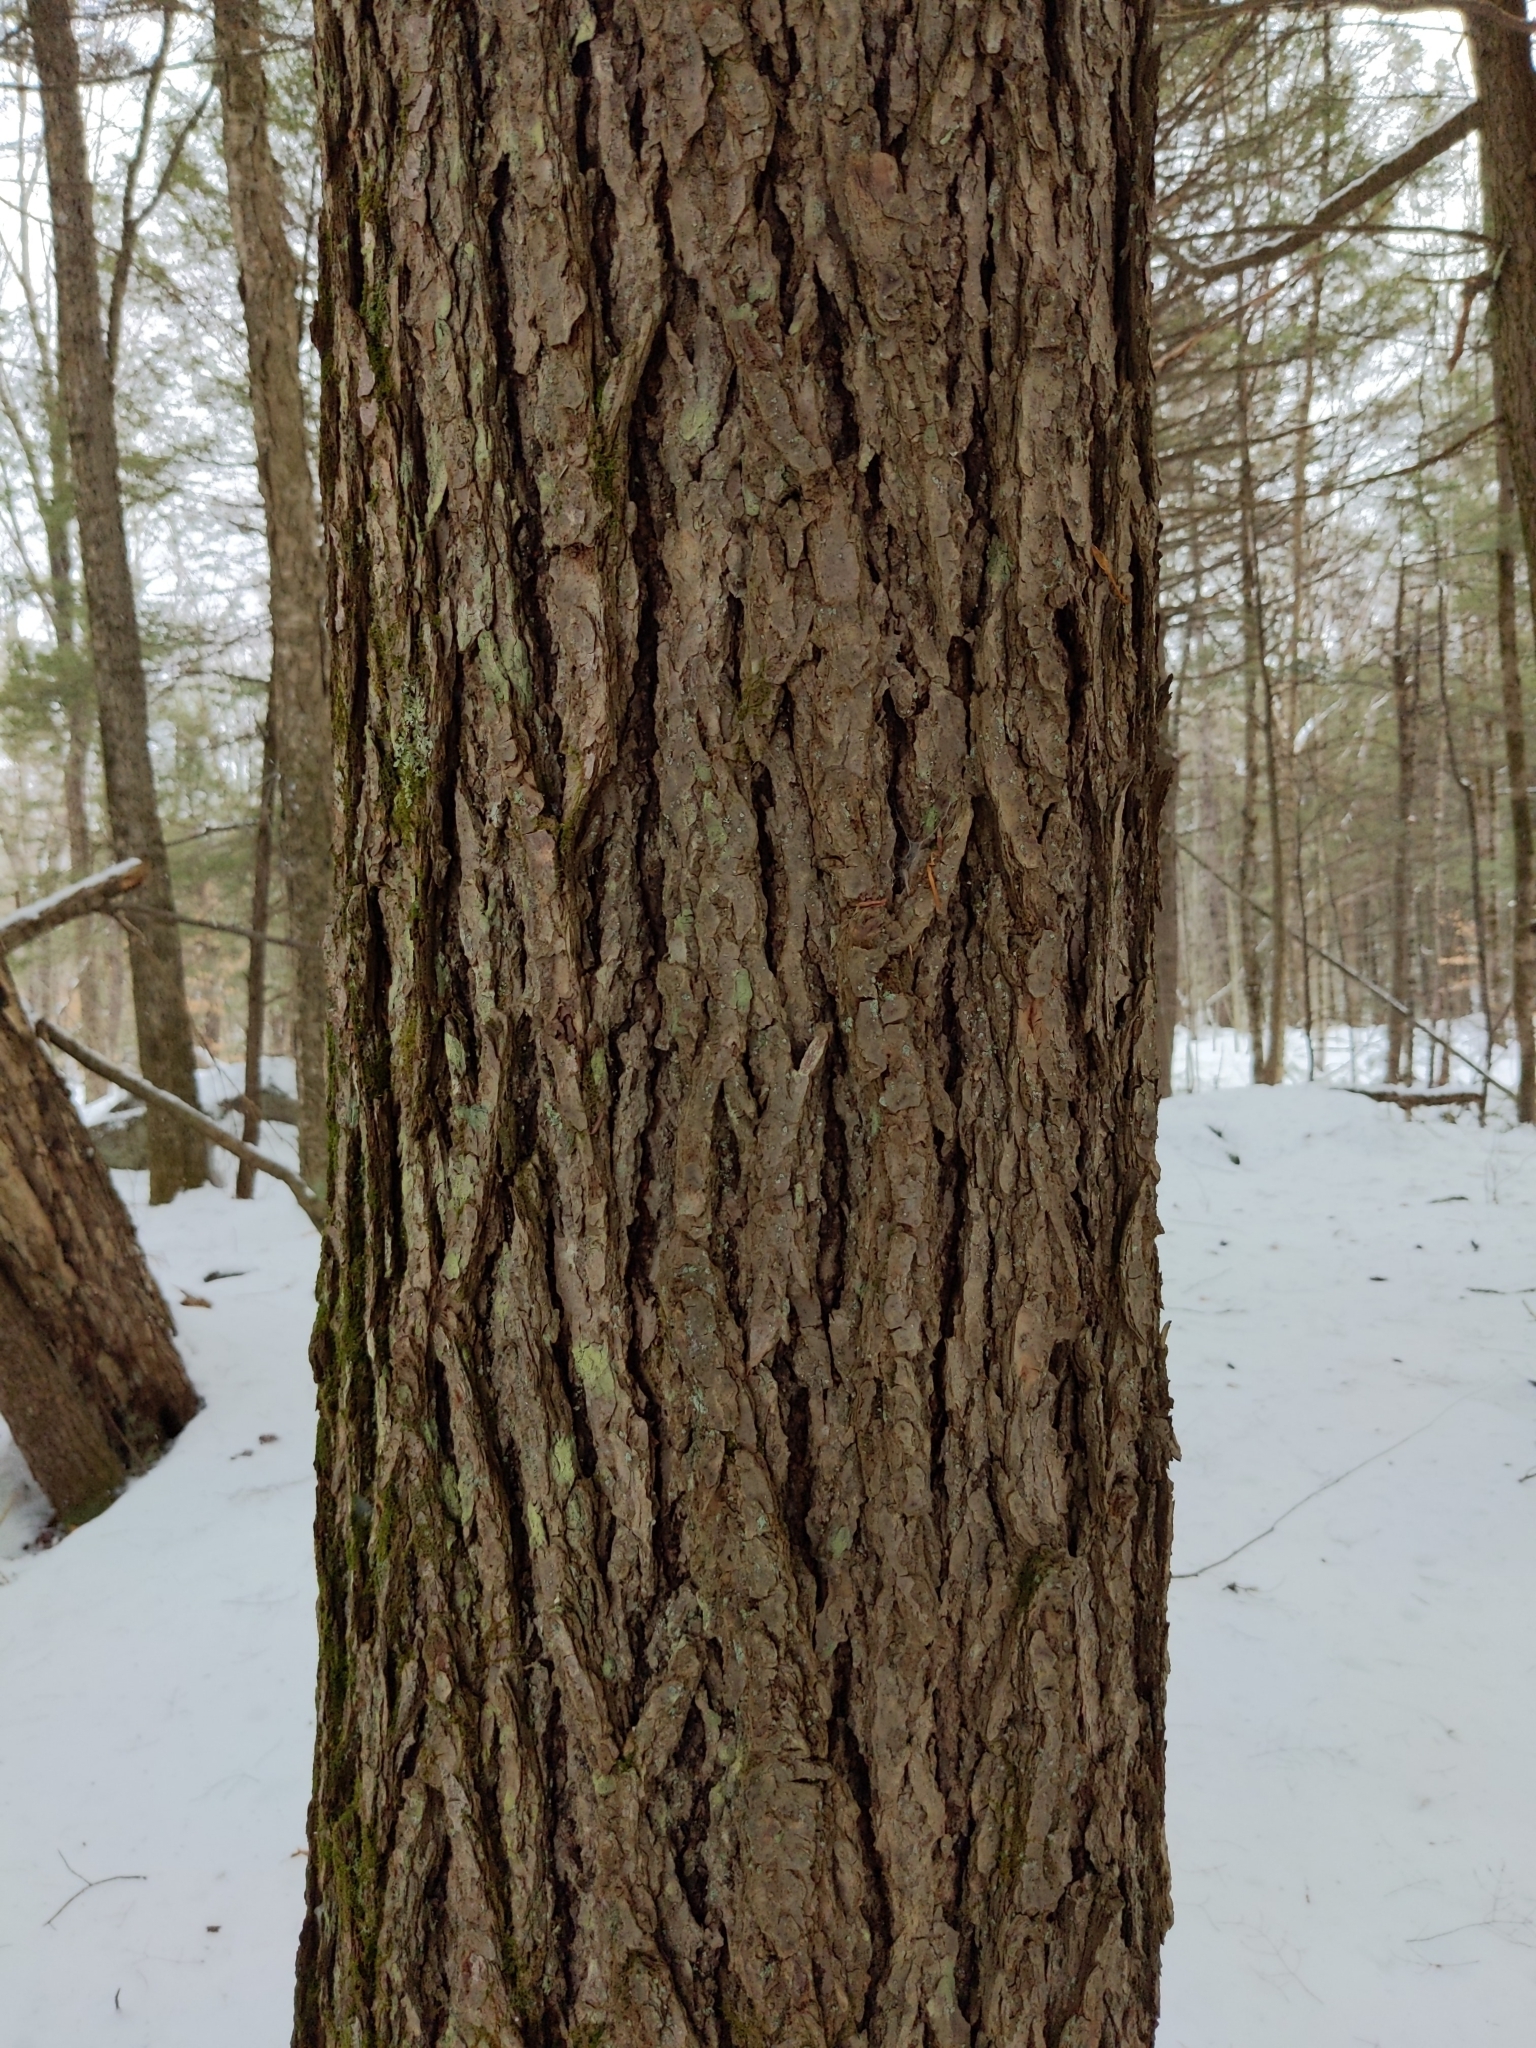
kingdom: Plantae
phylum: Tracheophyta
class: Pinopsida
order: Pinales
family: Pinaceae
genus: Tsuga
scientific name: Tsuga canadensis
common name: Eastern hemlock
